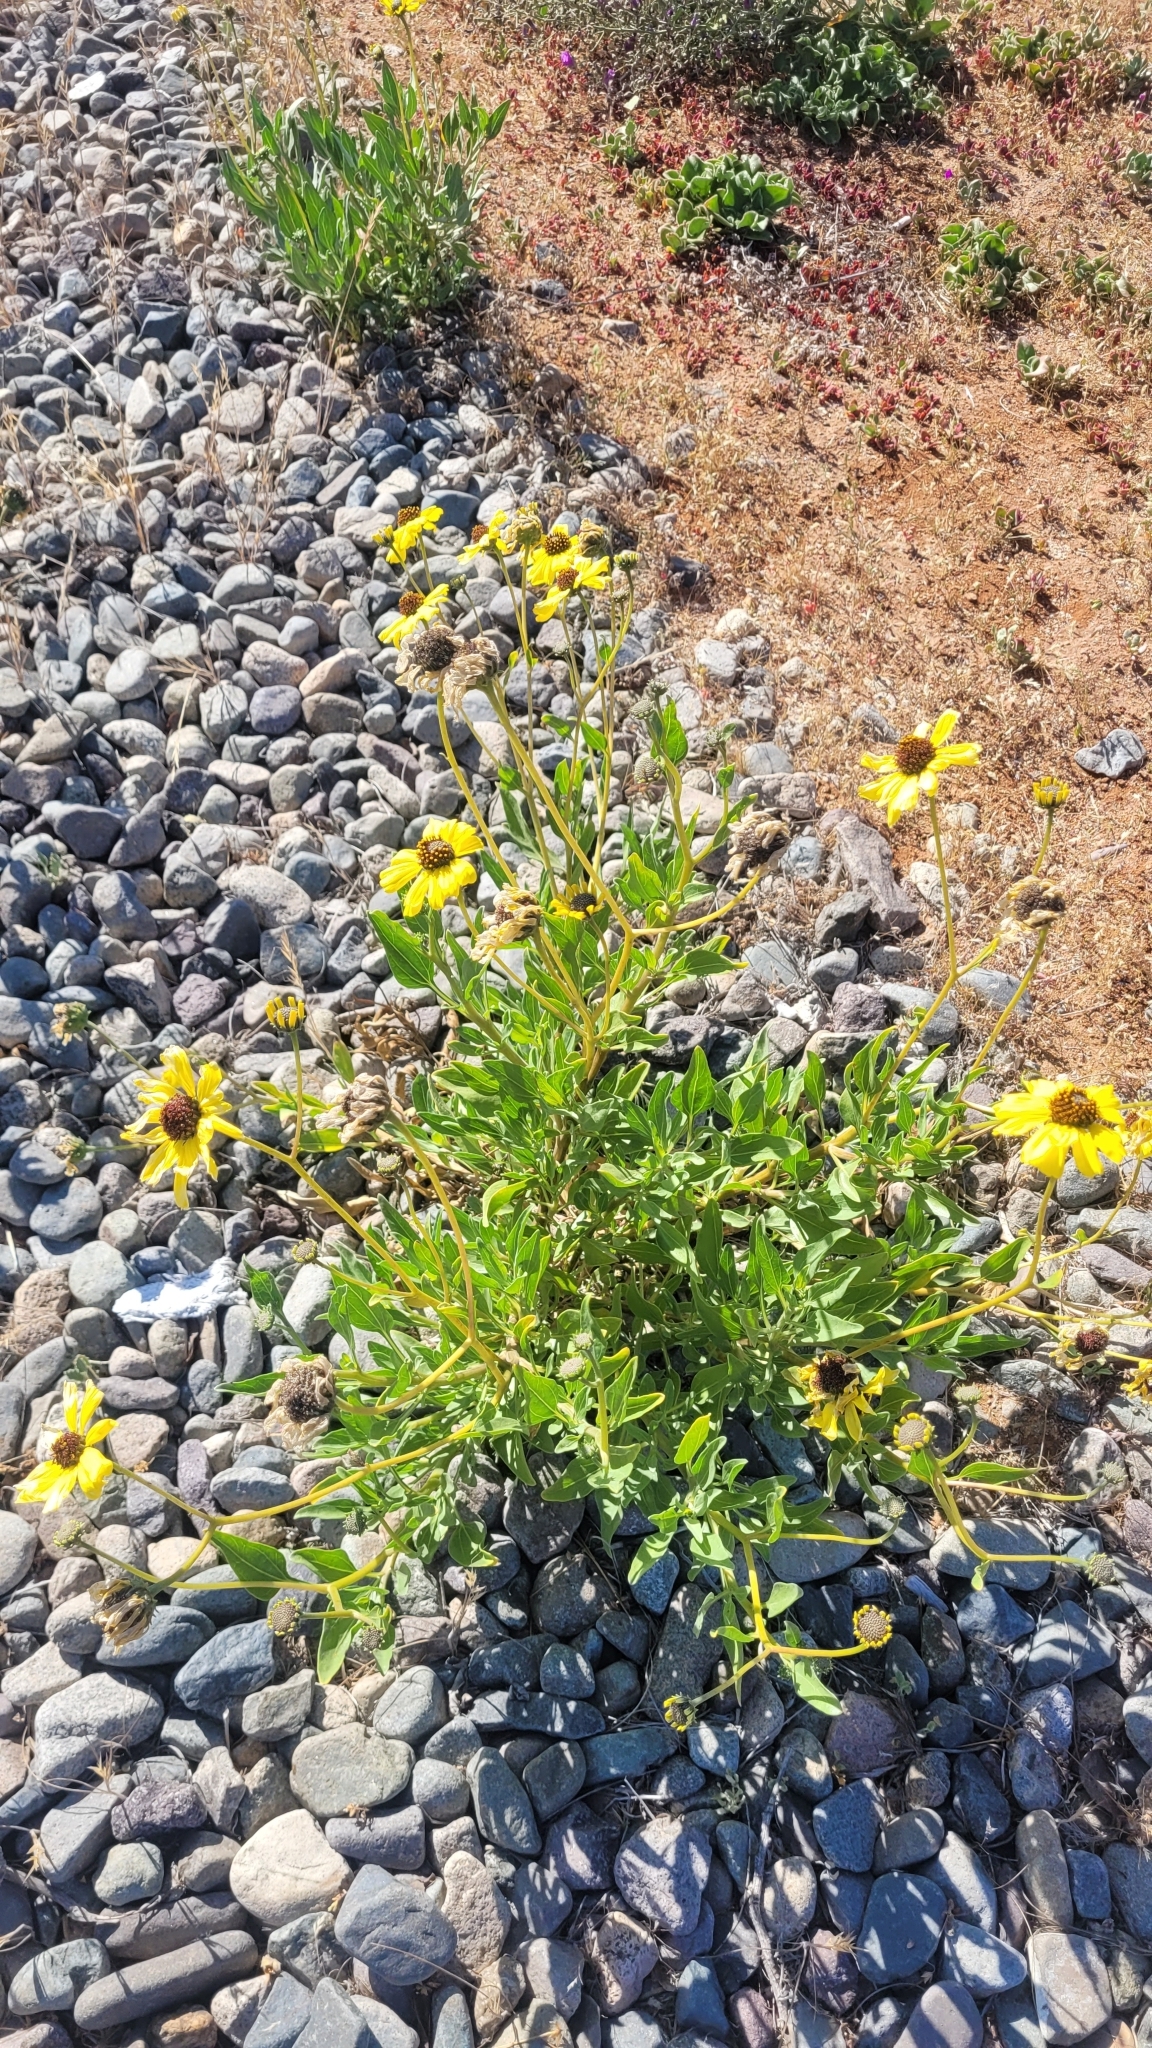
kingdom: Plantae
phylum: Tracheophyta
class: Magnoliopsida
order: Asterales
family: Asteraceae
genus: Encelia
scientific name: Encelia canescens
